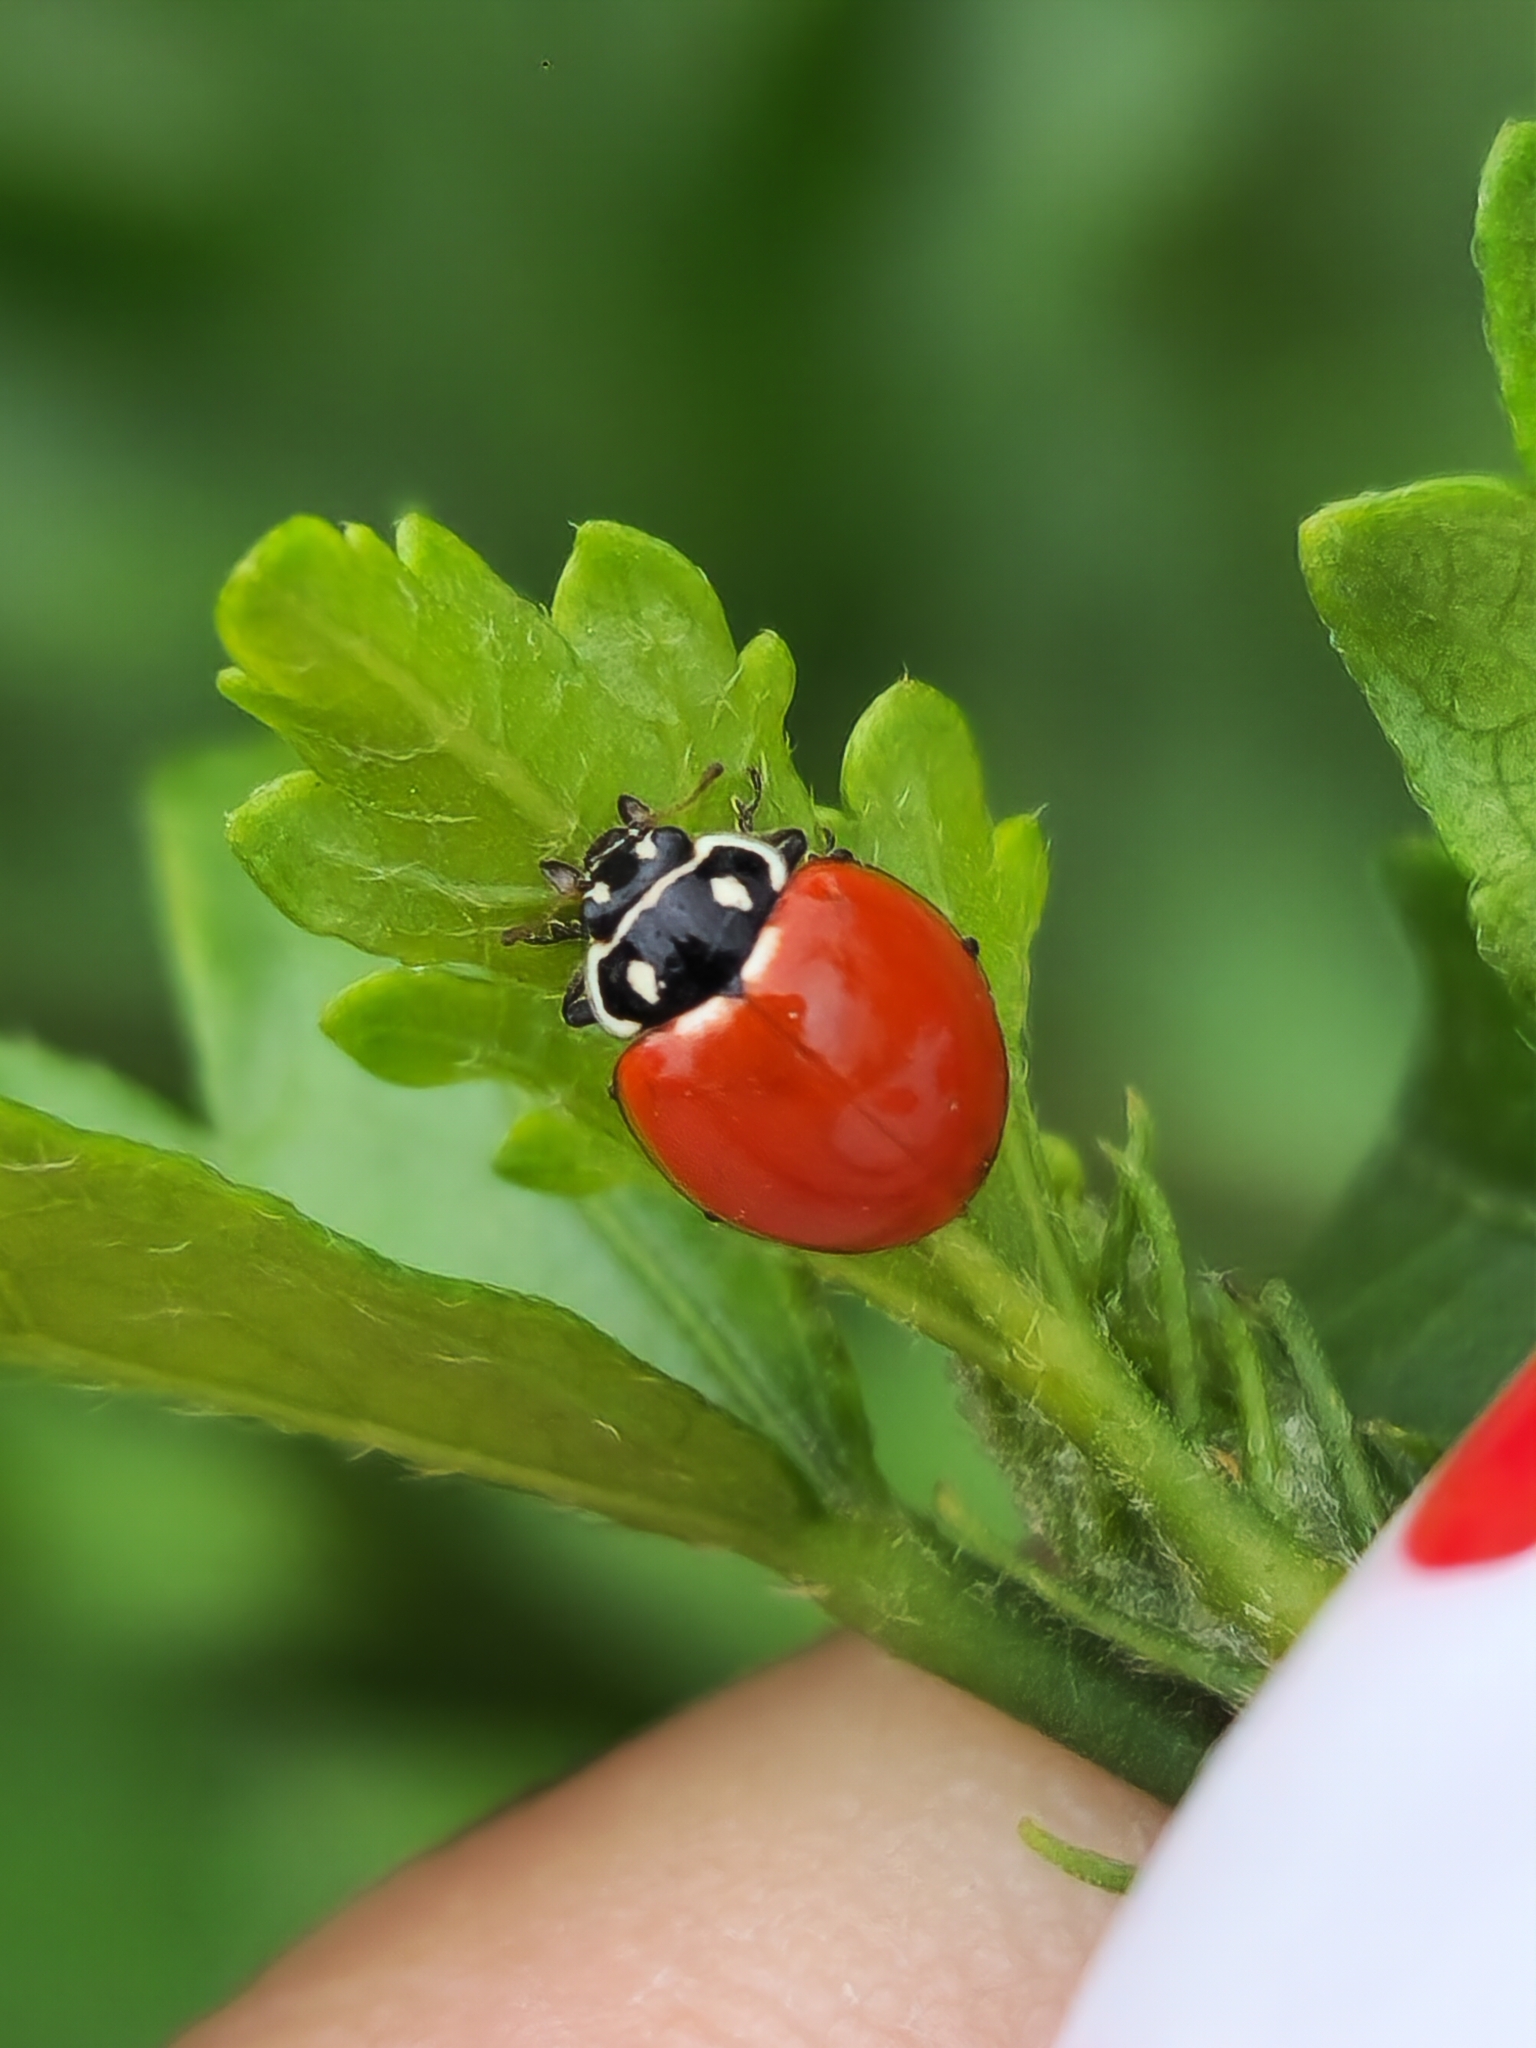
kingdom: Animalia
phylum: Arthropoda
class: Insecta
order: Coleoptera
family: Coccinellidae
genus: Cycloneda
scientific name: Cycloneda emarginata
